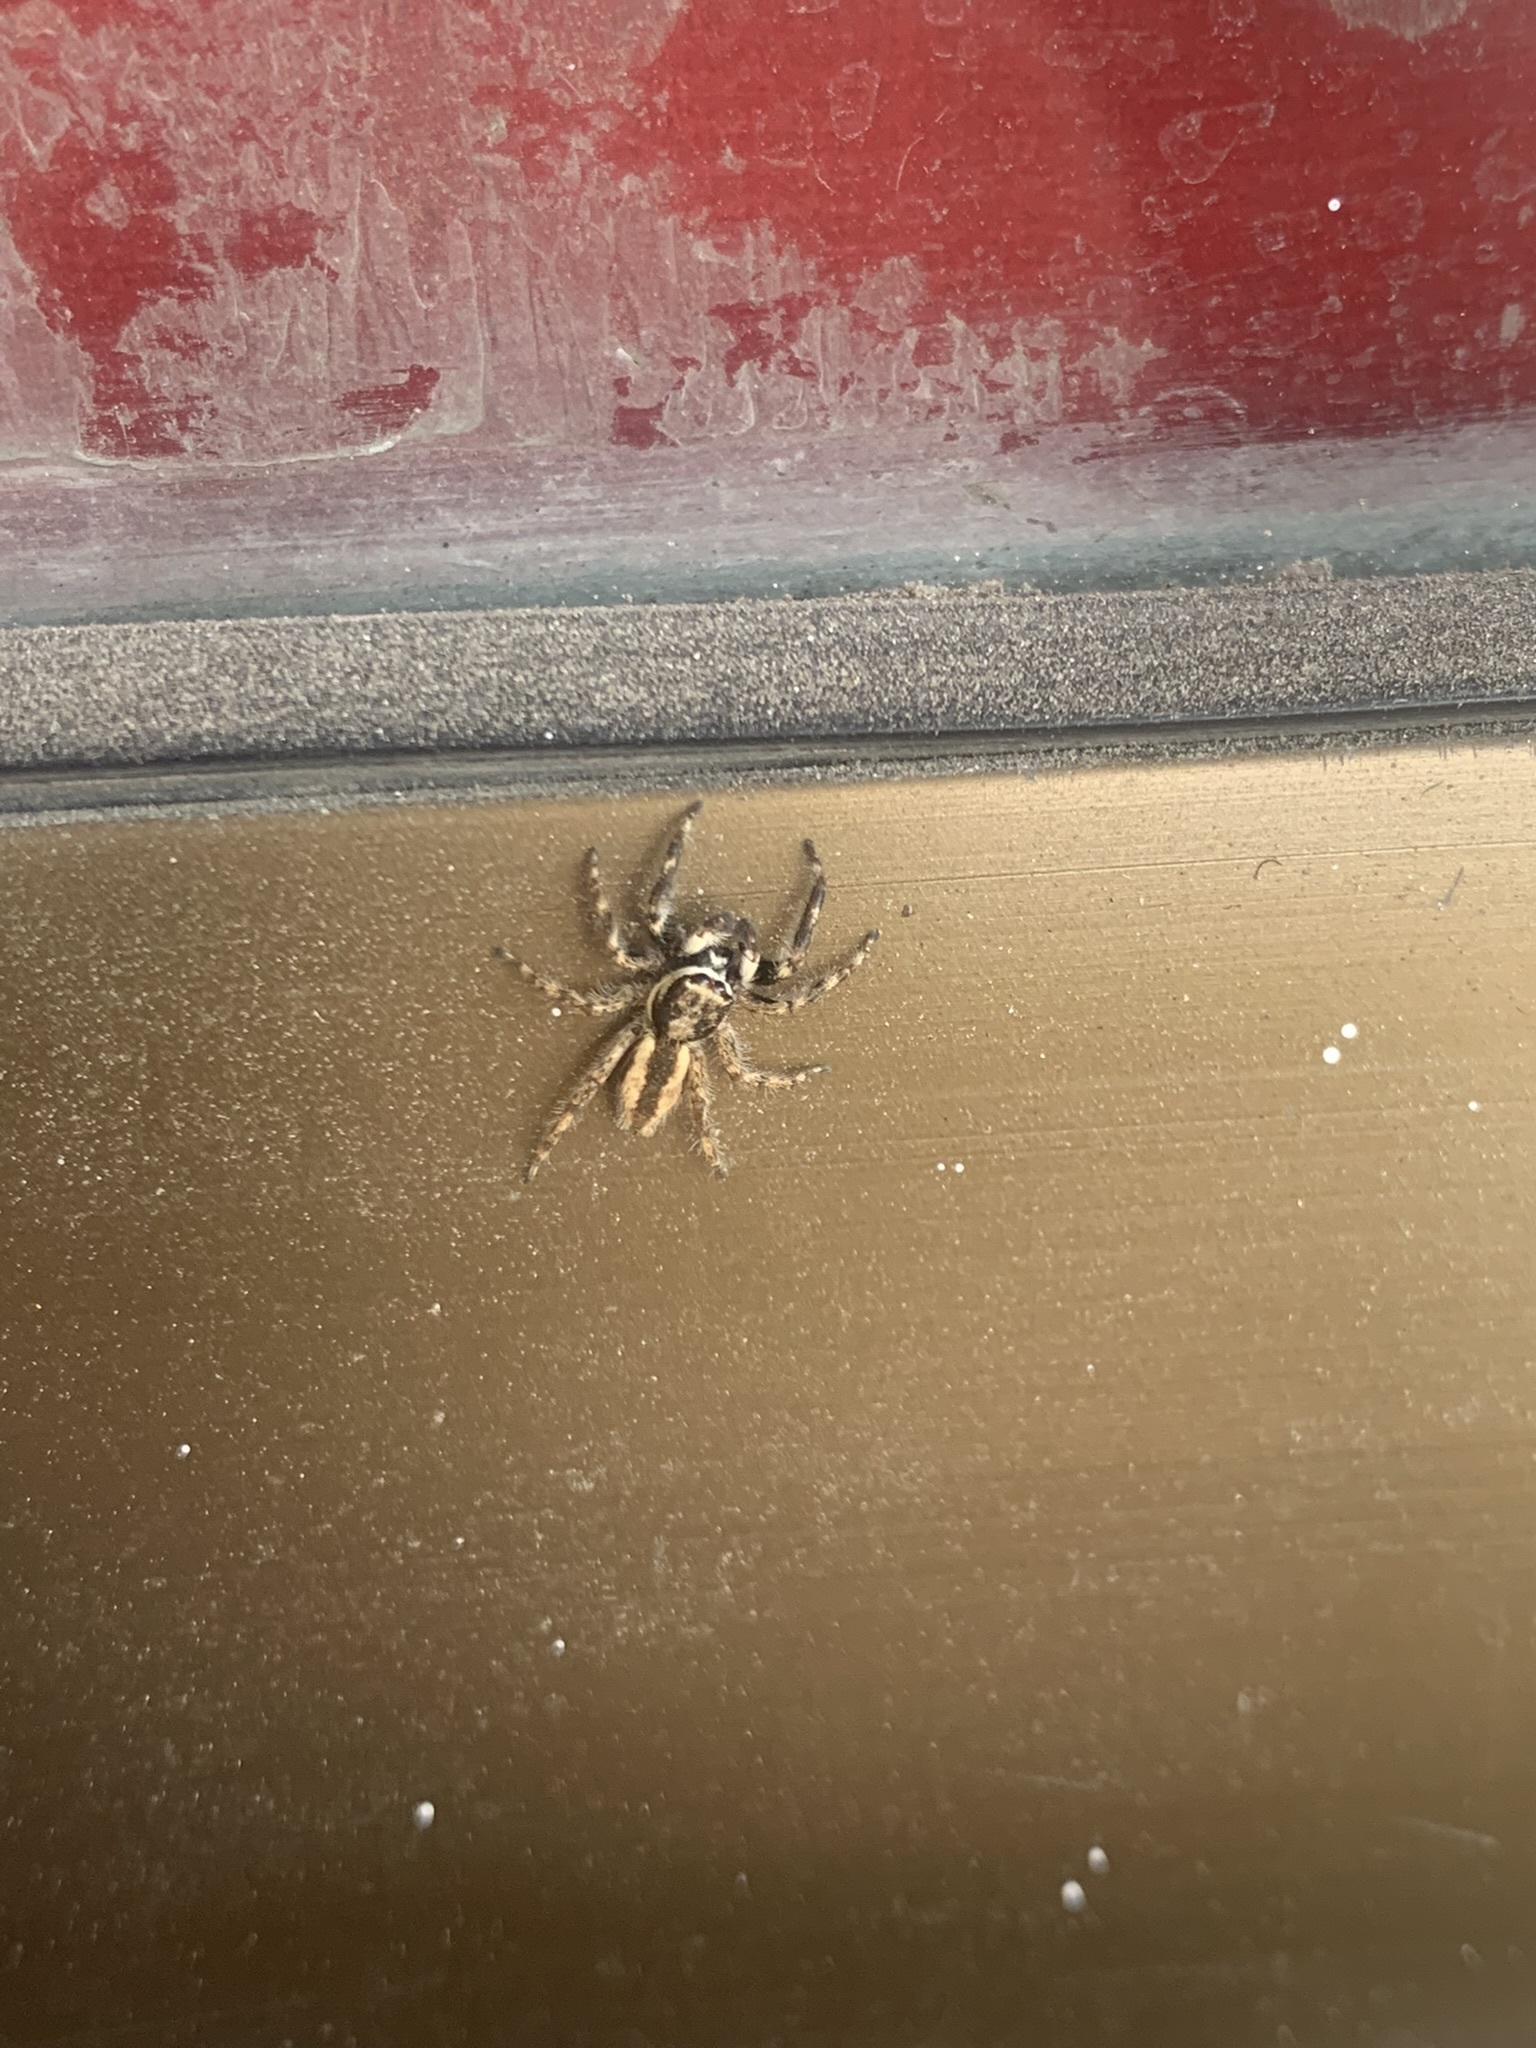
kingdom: Animalia
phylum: Arthropoda
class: Arachnida
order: Araneae
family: Salticidae
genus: Menemerus
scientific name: Menemerus bivittatus
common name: Gray wall jumper
